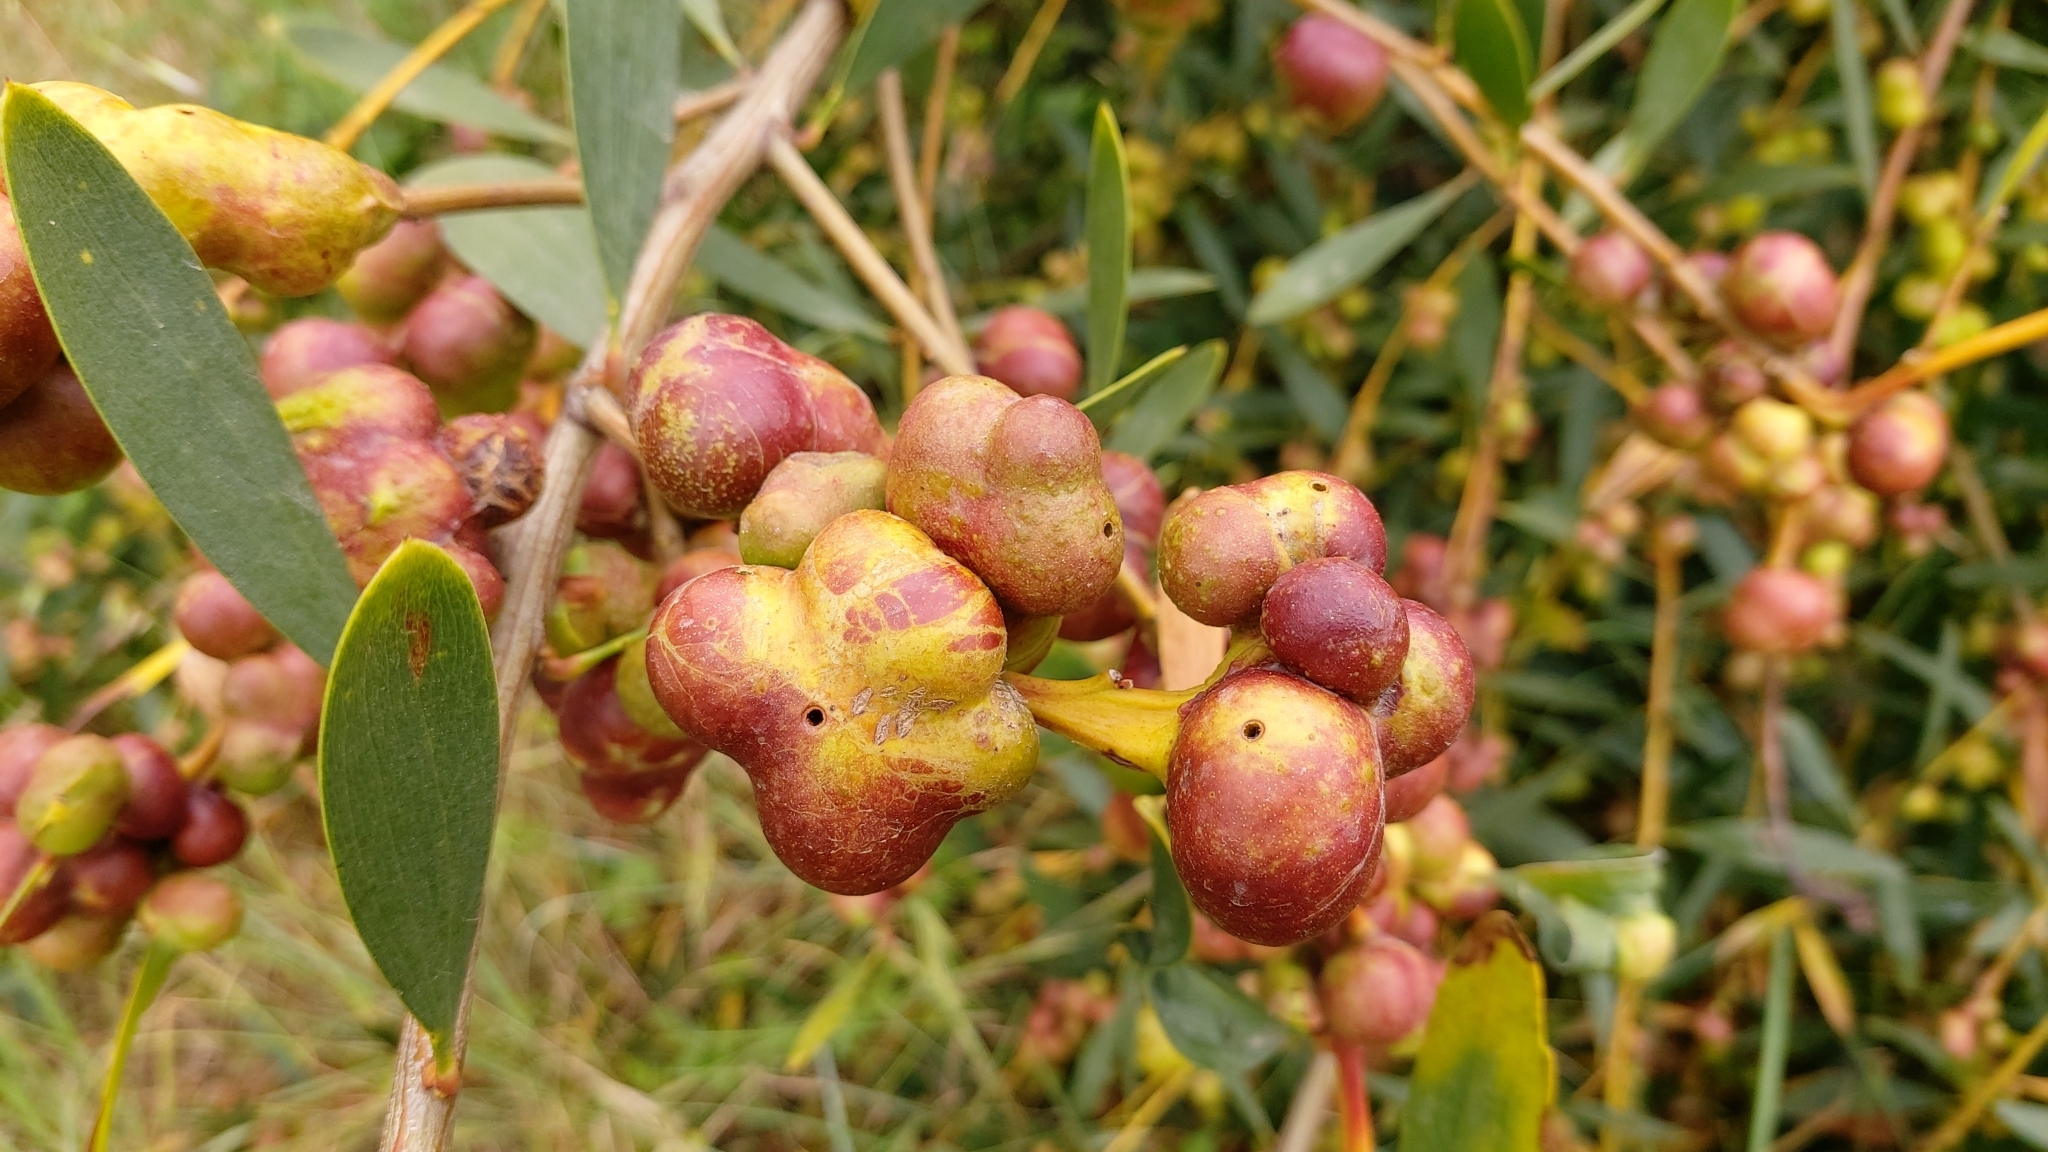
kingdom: Animalia
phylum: Arthropoda
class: Insecta
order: Hymenoptera
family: Pteromalidae
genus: Trichilogaster
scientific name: Trichilogaster acaciaelongifoliae
